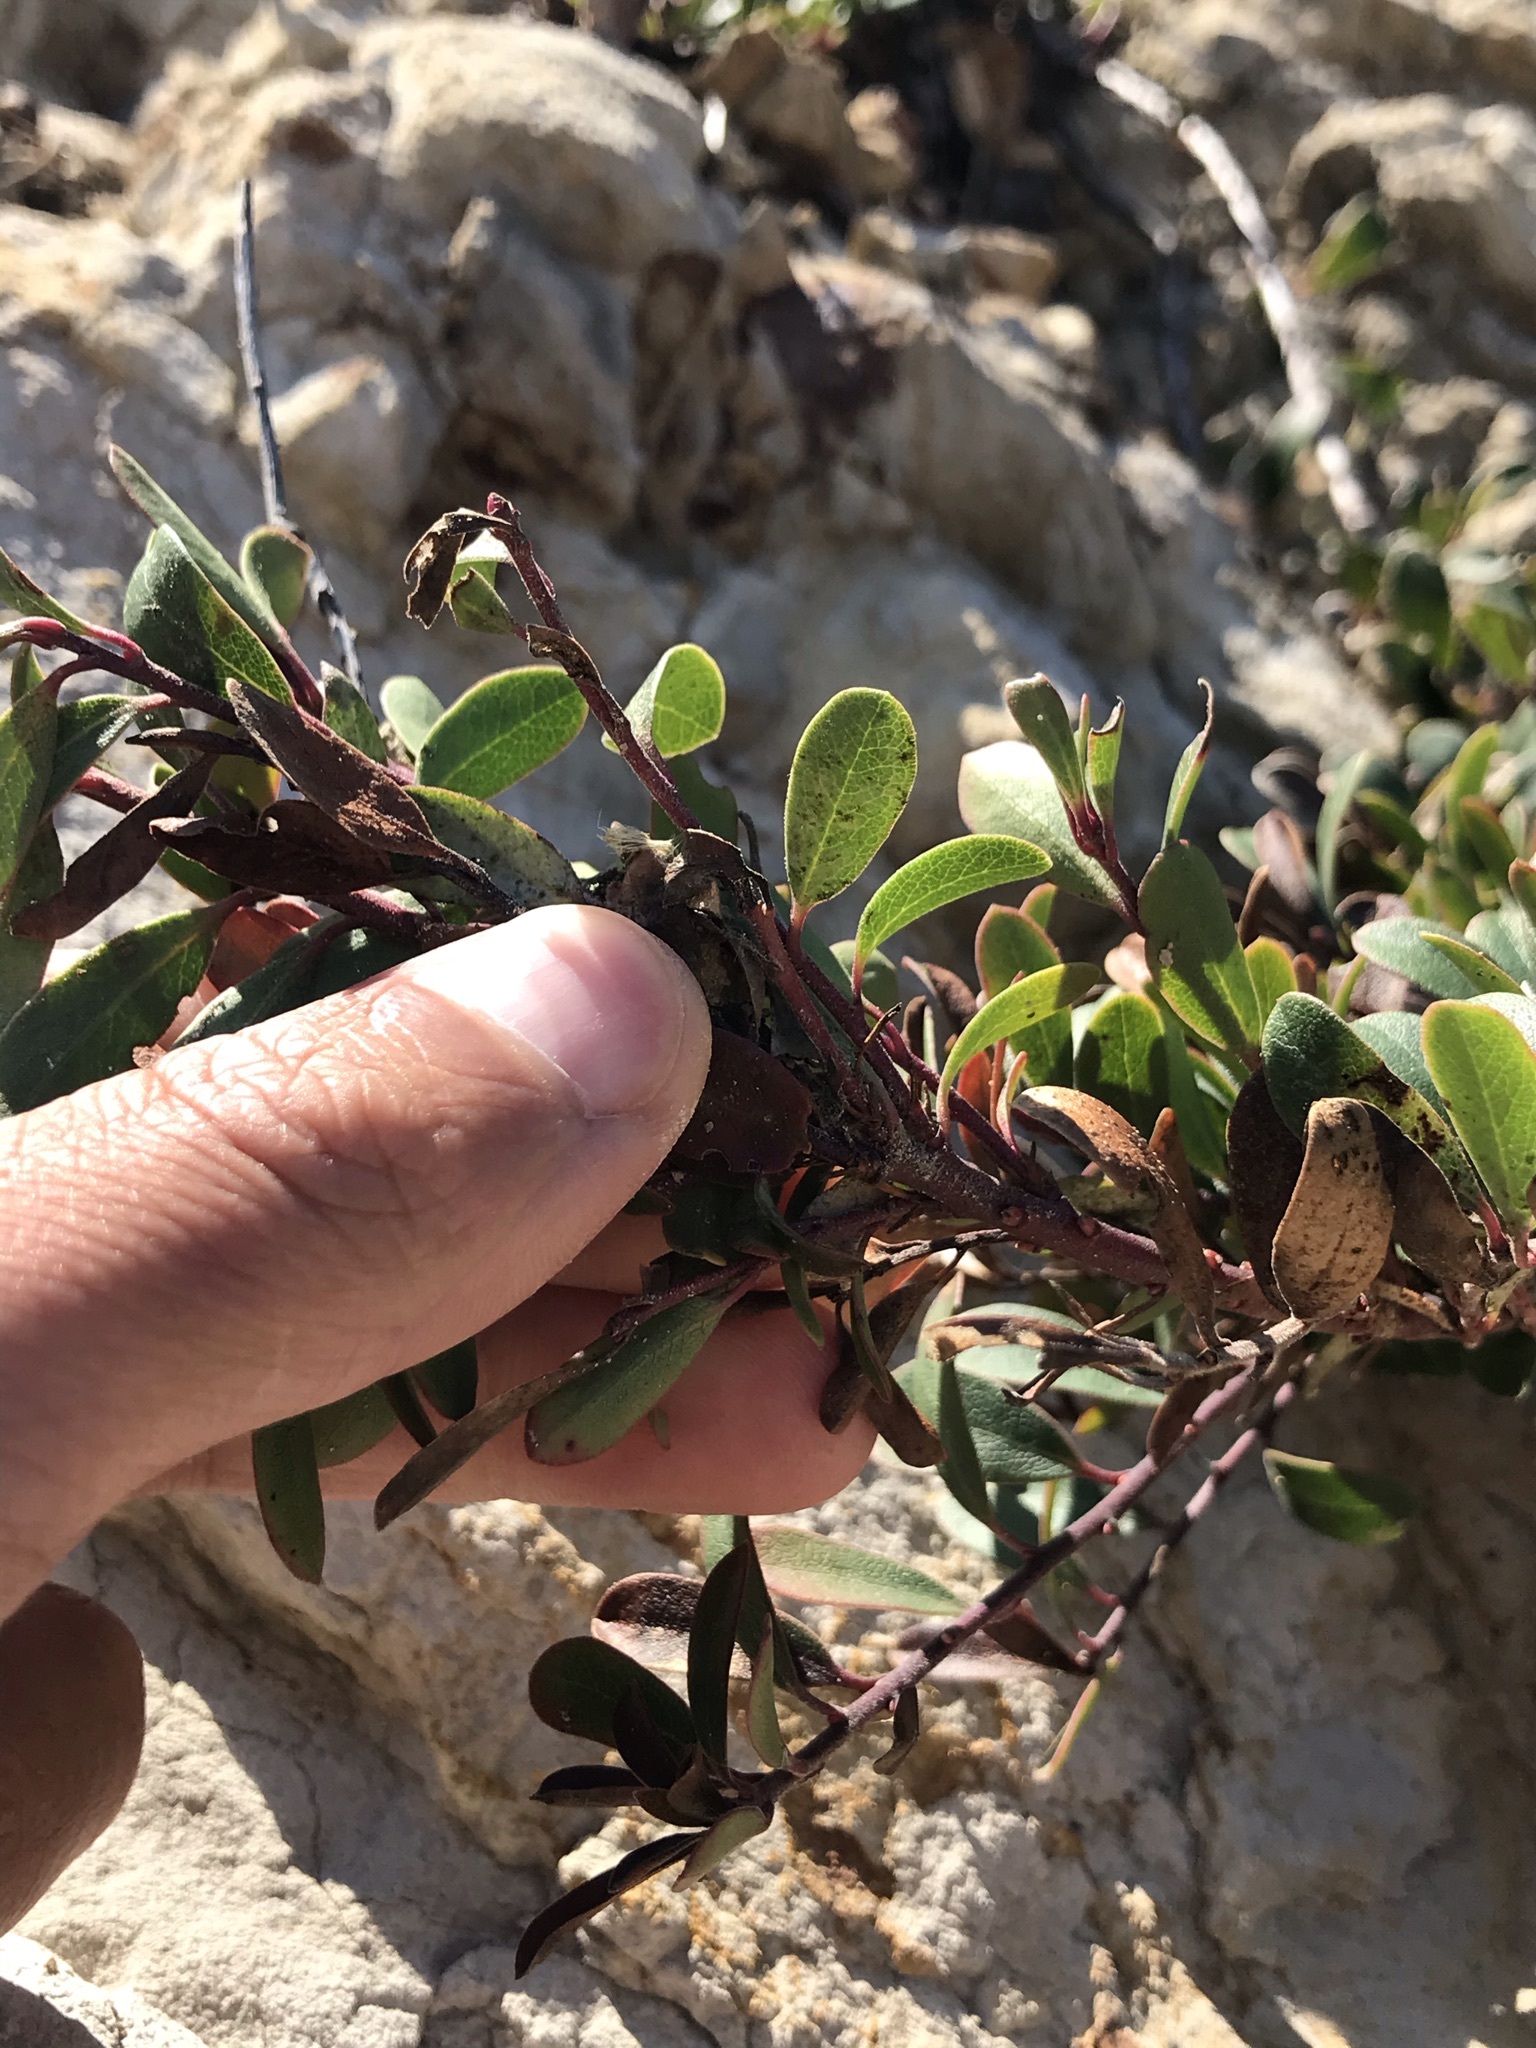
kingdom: Plantae
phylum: Tracheophyta
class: Magnoliopsida
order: Ericales
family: Ericaceae
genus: Arctostaphylos
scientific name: Arctostaphylos uva-ursi
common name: Bearberry
